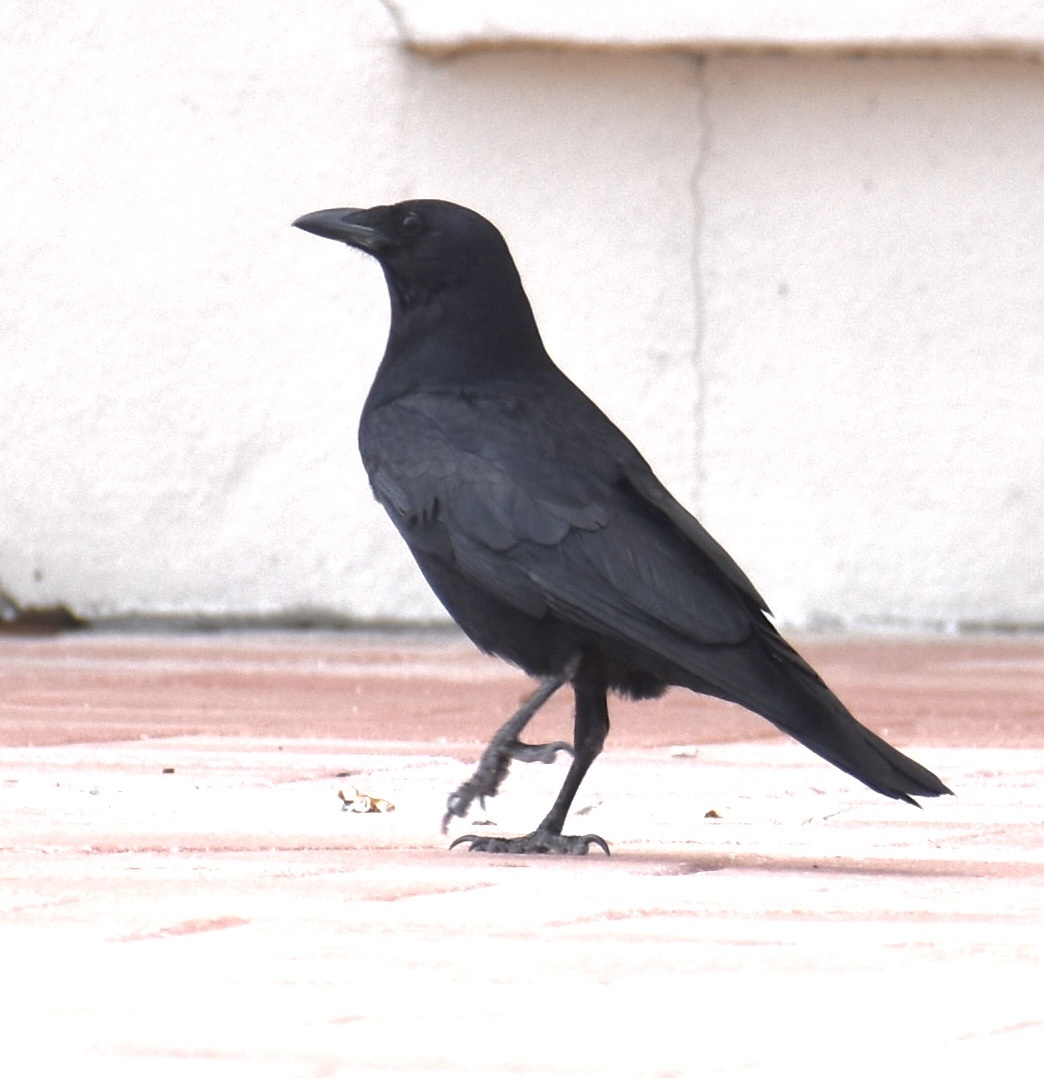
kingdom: Animalia
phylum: Chordata
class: Aves
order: Passeriformes
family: Corvidae
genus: Corvus
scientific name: Corvus ossifragus
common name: Fish crow
